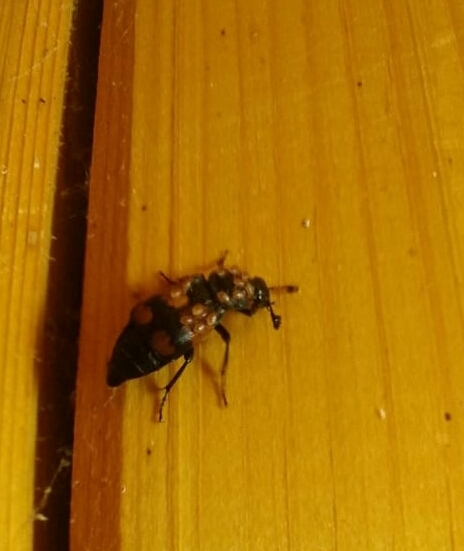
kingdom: Animalia
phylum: Arthropoda
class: Insecta
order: Coleoptera
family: Staphylinidae
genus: Nicrophorus
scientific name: Nicrophorus vespilloides
